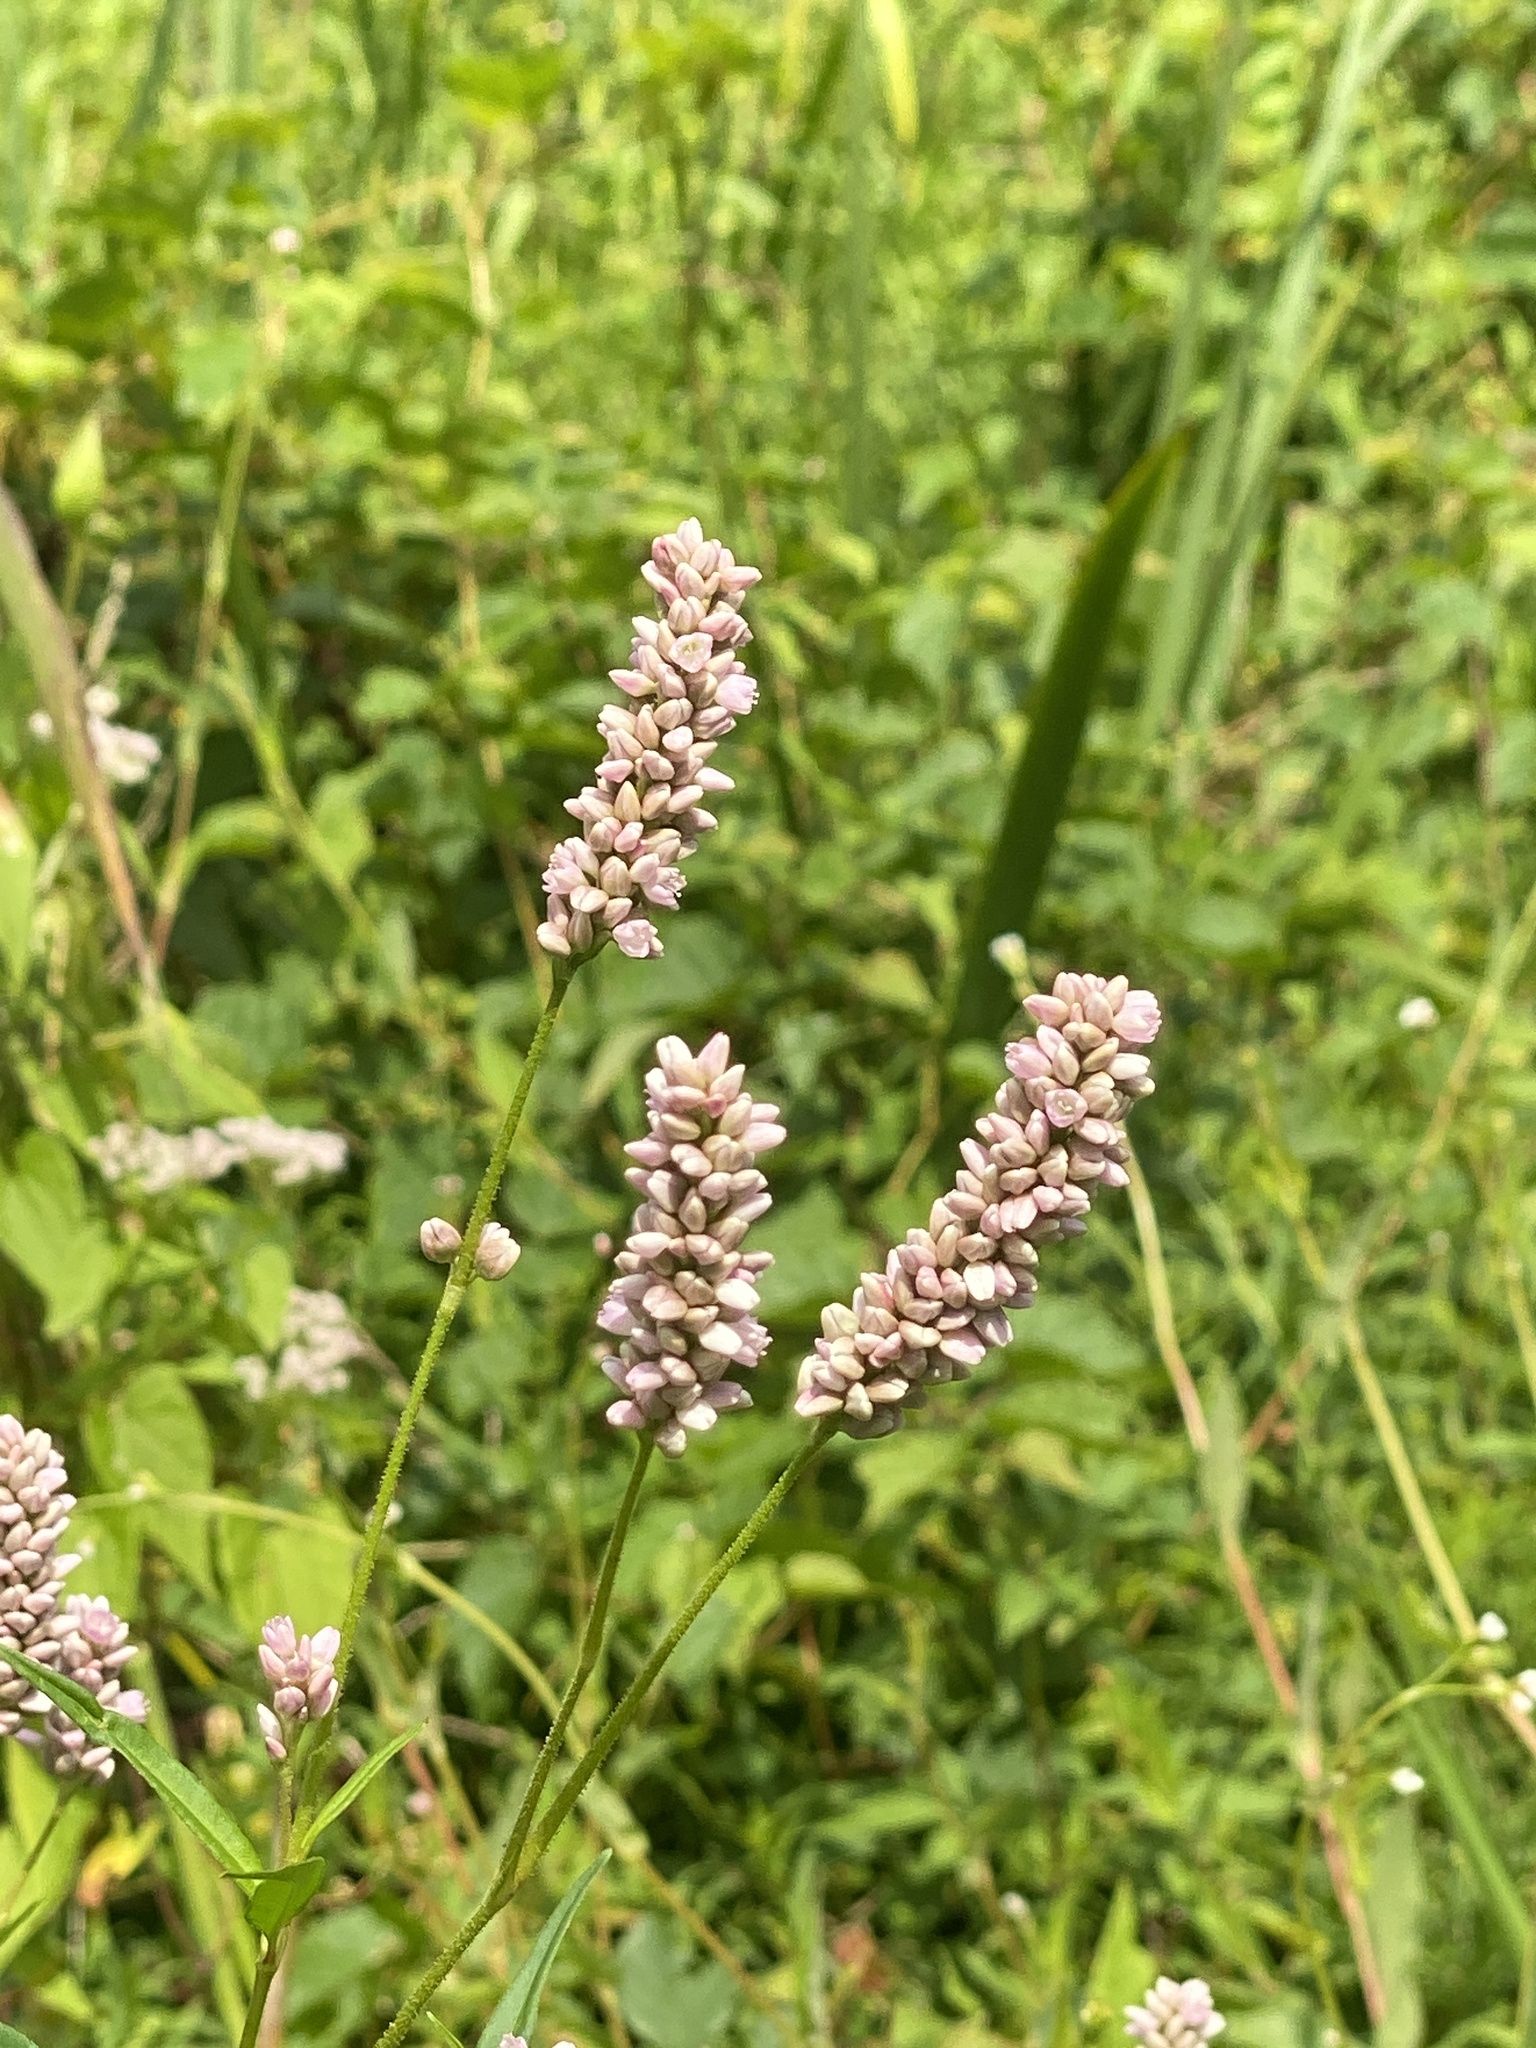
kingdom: Plantae
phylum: Tracheophyta
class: Magnoliopsida
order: Caryophyllales
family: Polygonaceae
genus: Persicaria
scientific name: Persicaria pensylvanica
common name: Pinkweed
